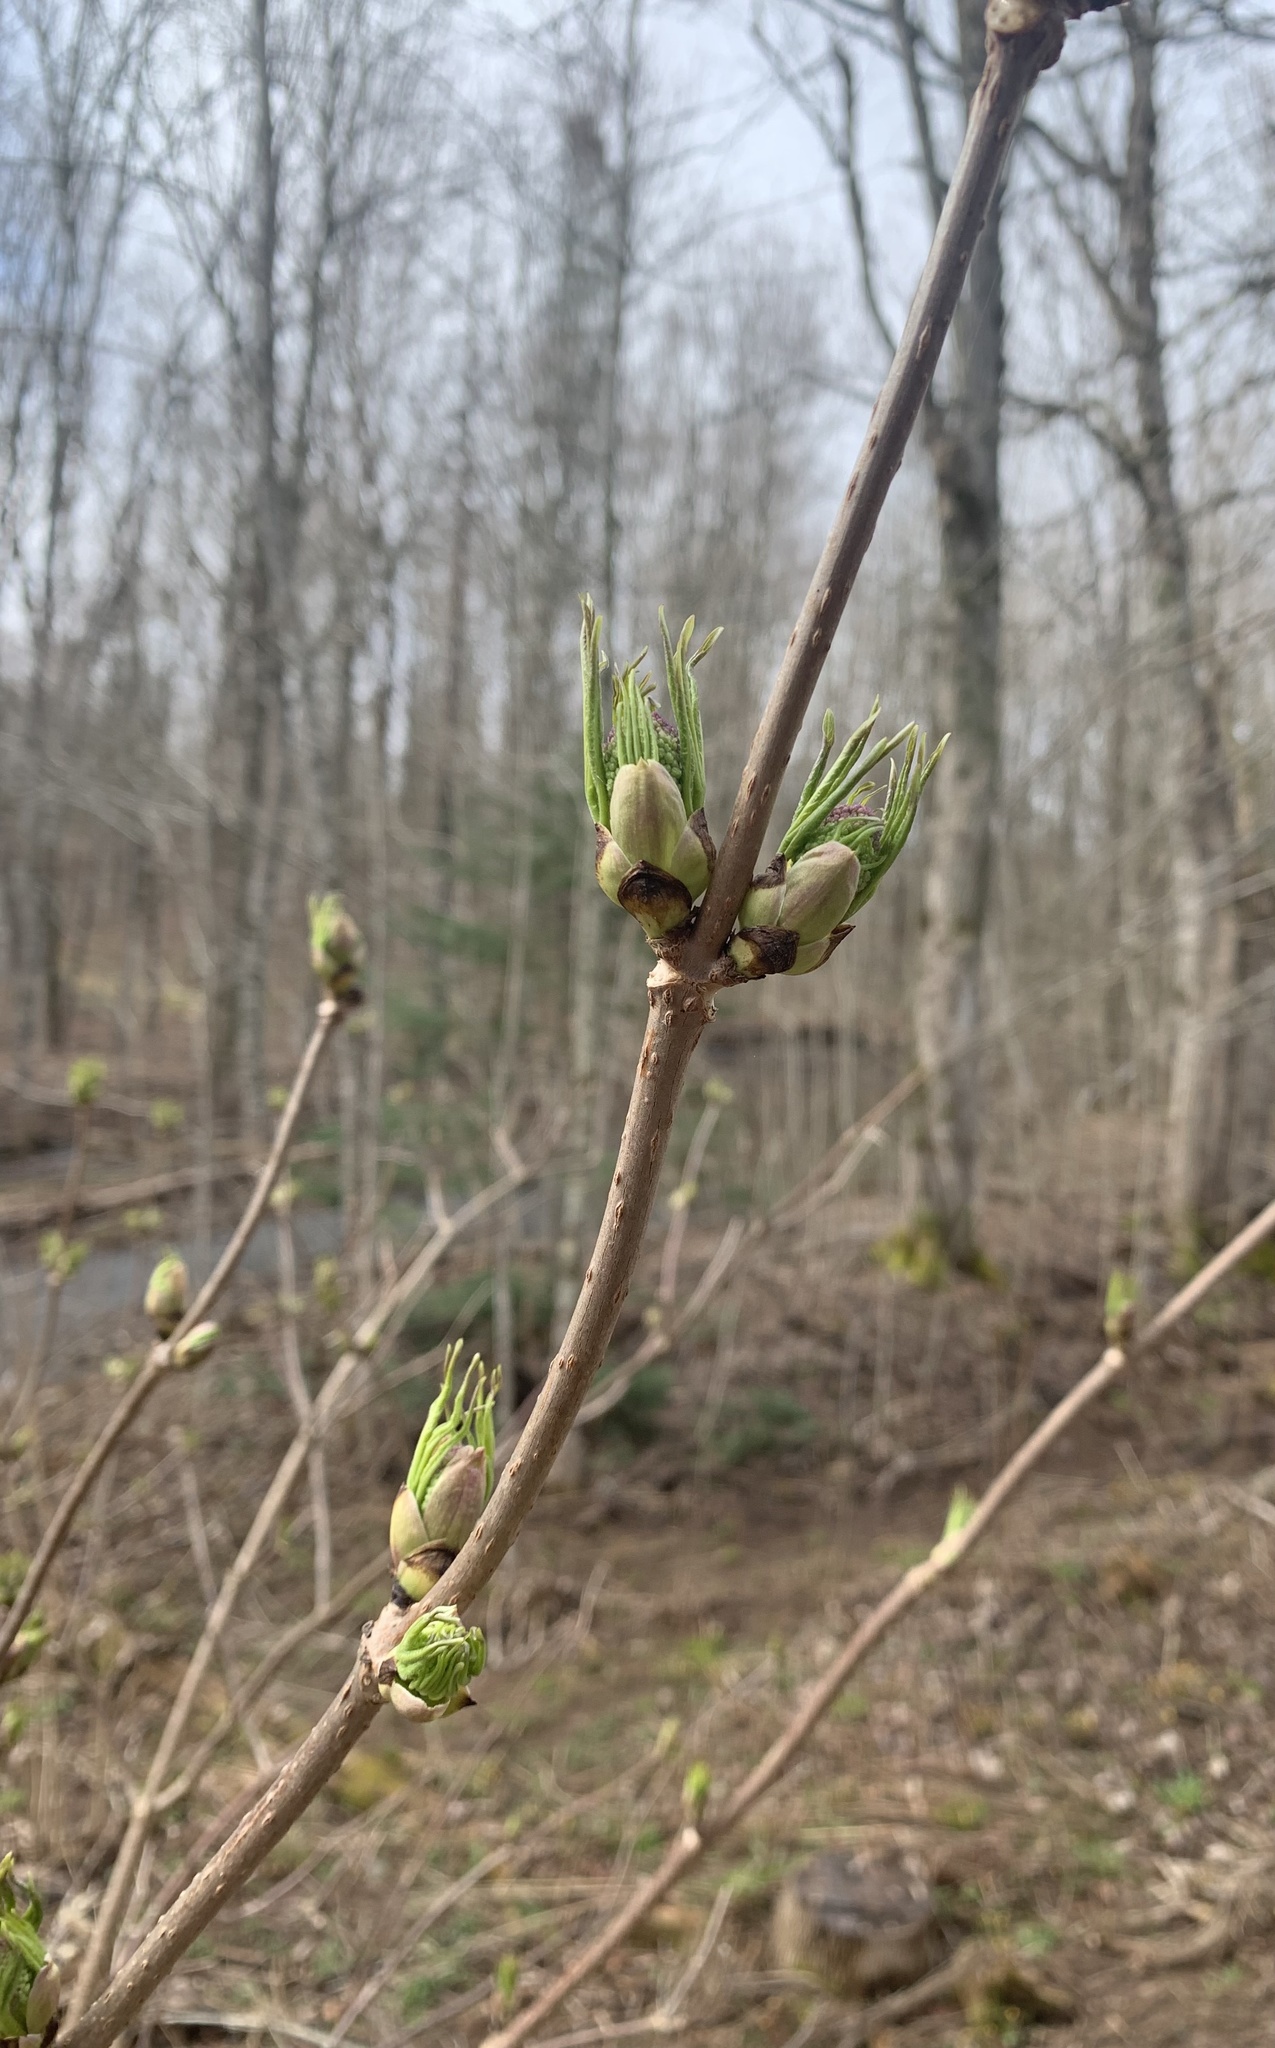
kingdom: Plantae
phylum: Tracheophyta
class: Magnoliopsida
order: Dipsacales
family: Viburnaceae
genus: Sambucus
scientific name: Sambucus racemosa
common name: Red-berried elder
